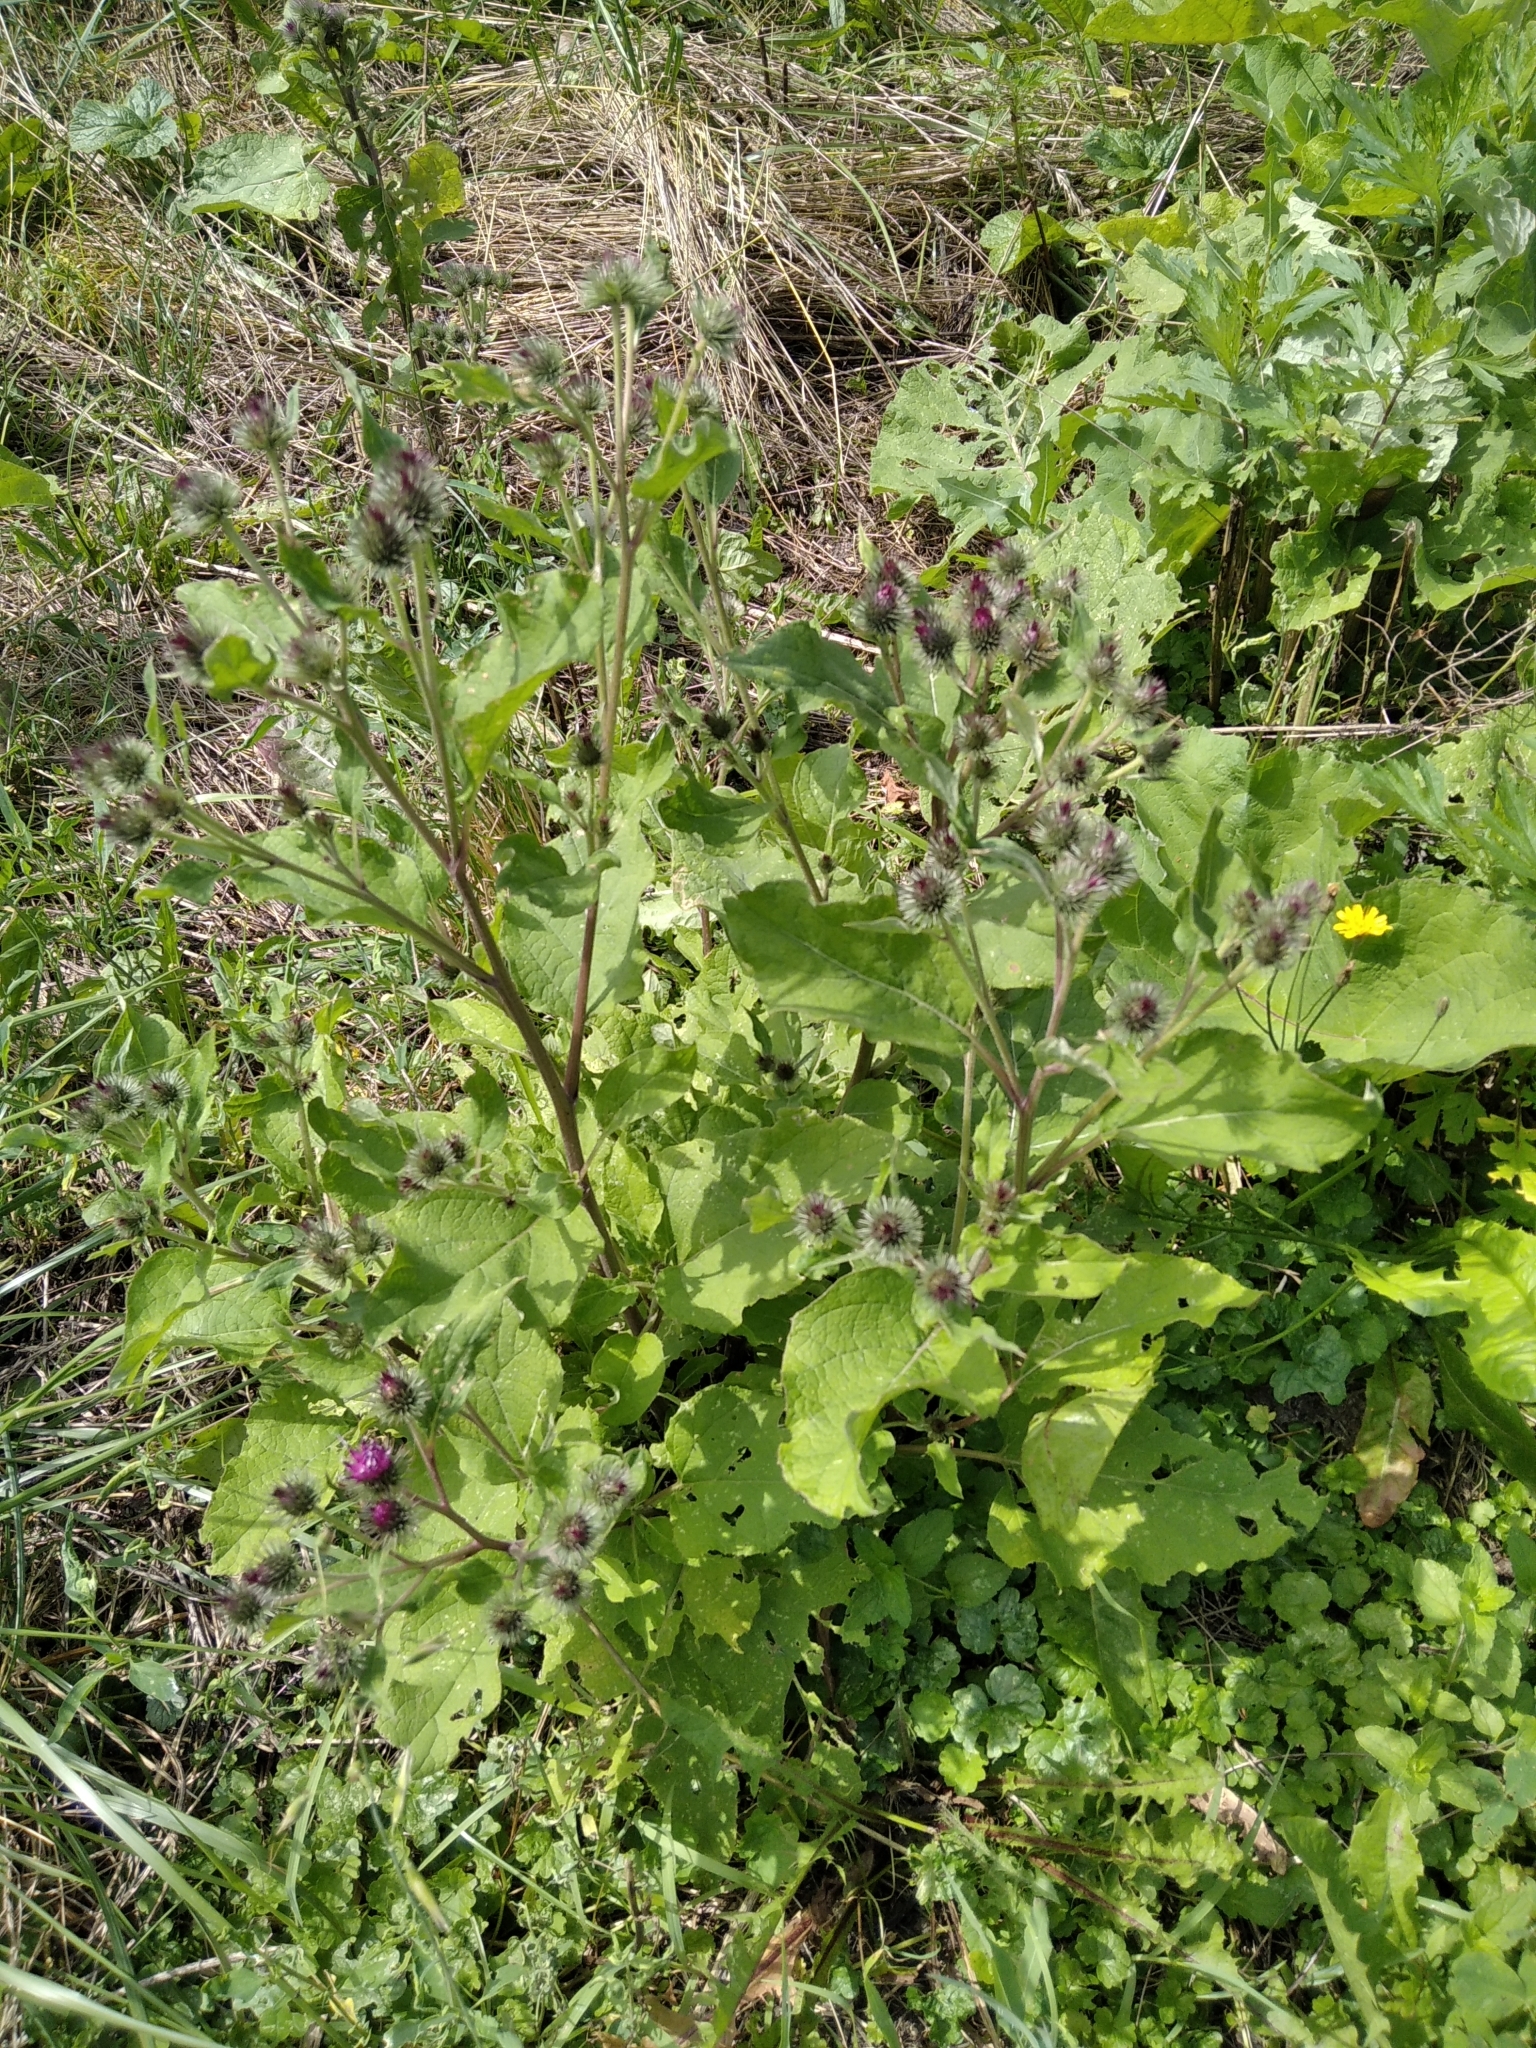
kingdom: Plantae
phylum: Tracheophyta
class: Magnoliopsida
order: Asterales
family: Asteraceae
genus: Arctium
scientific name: Arctium
